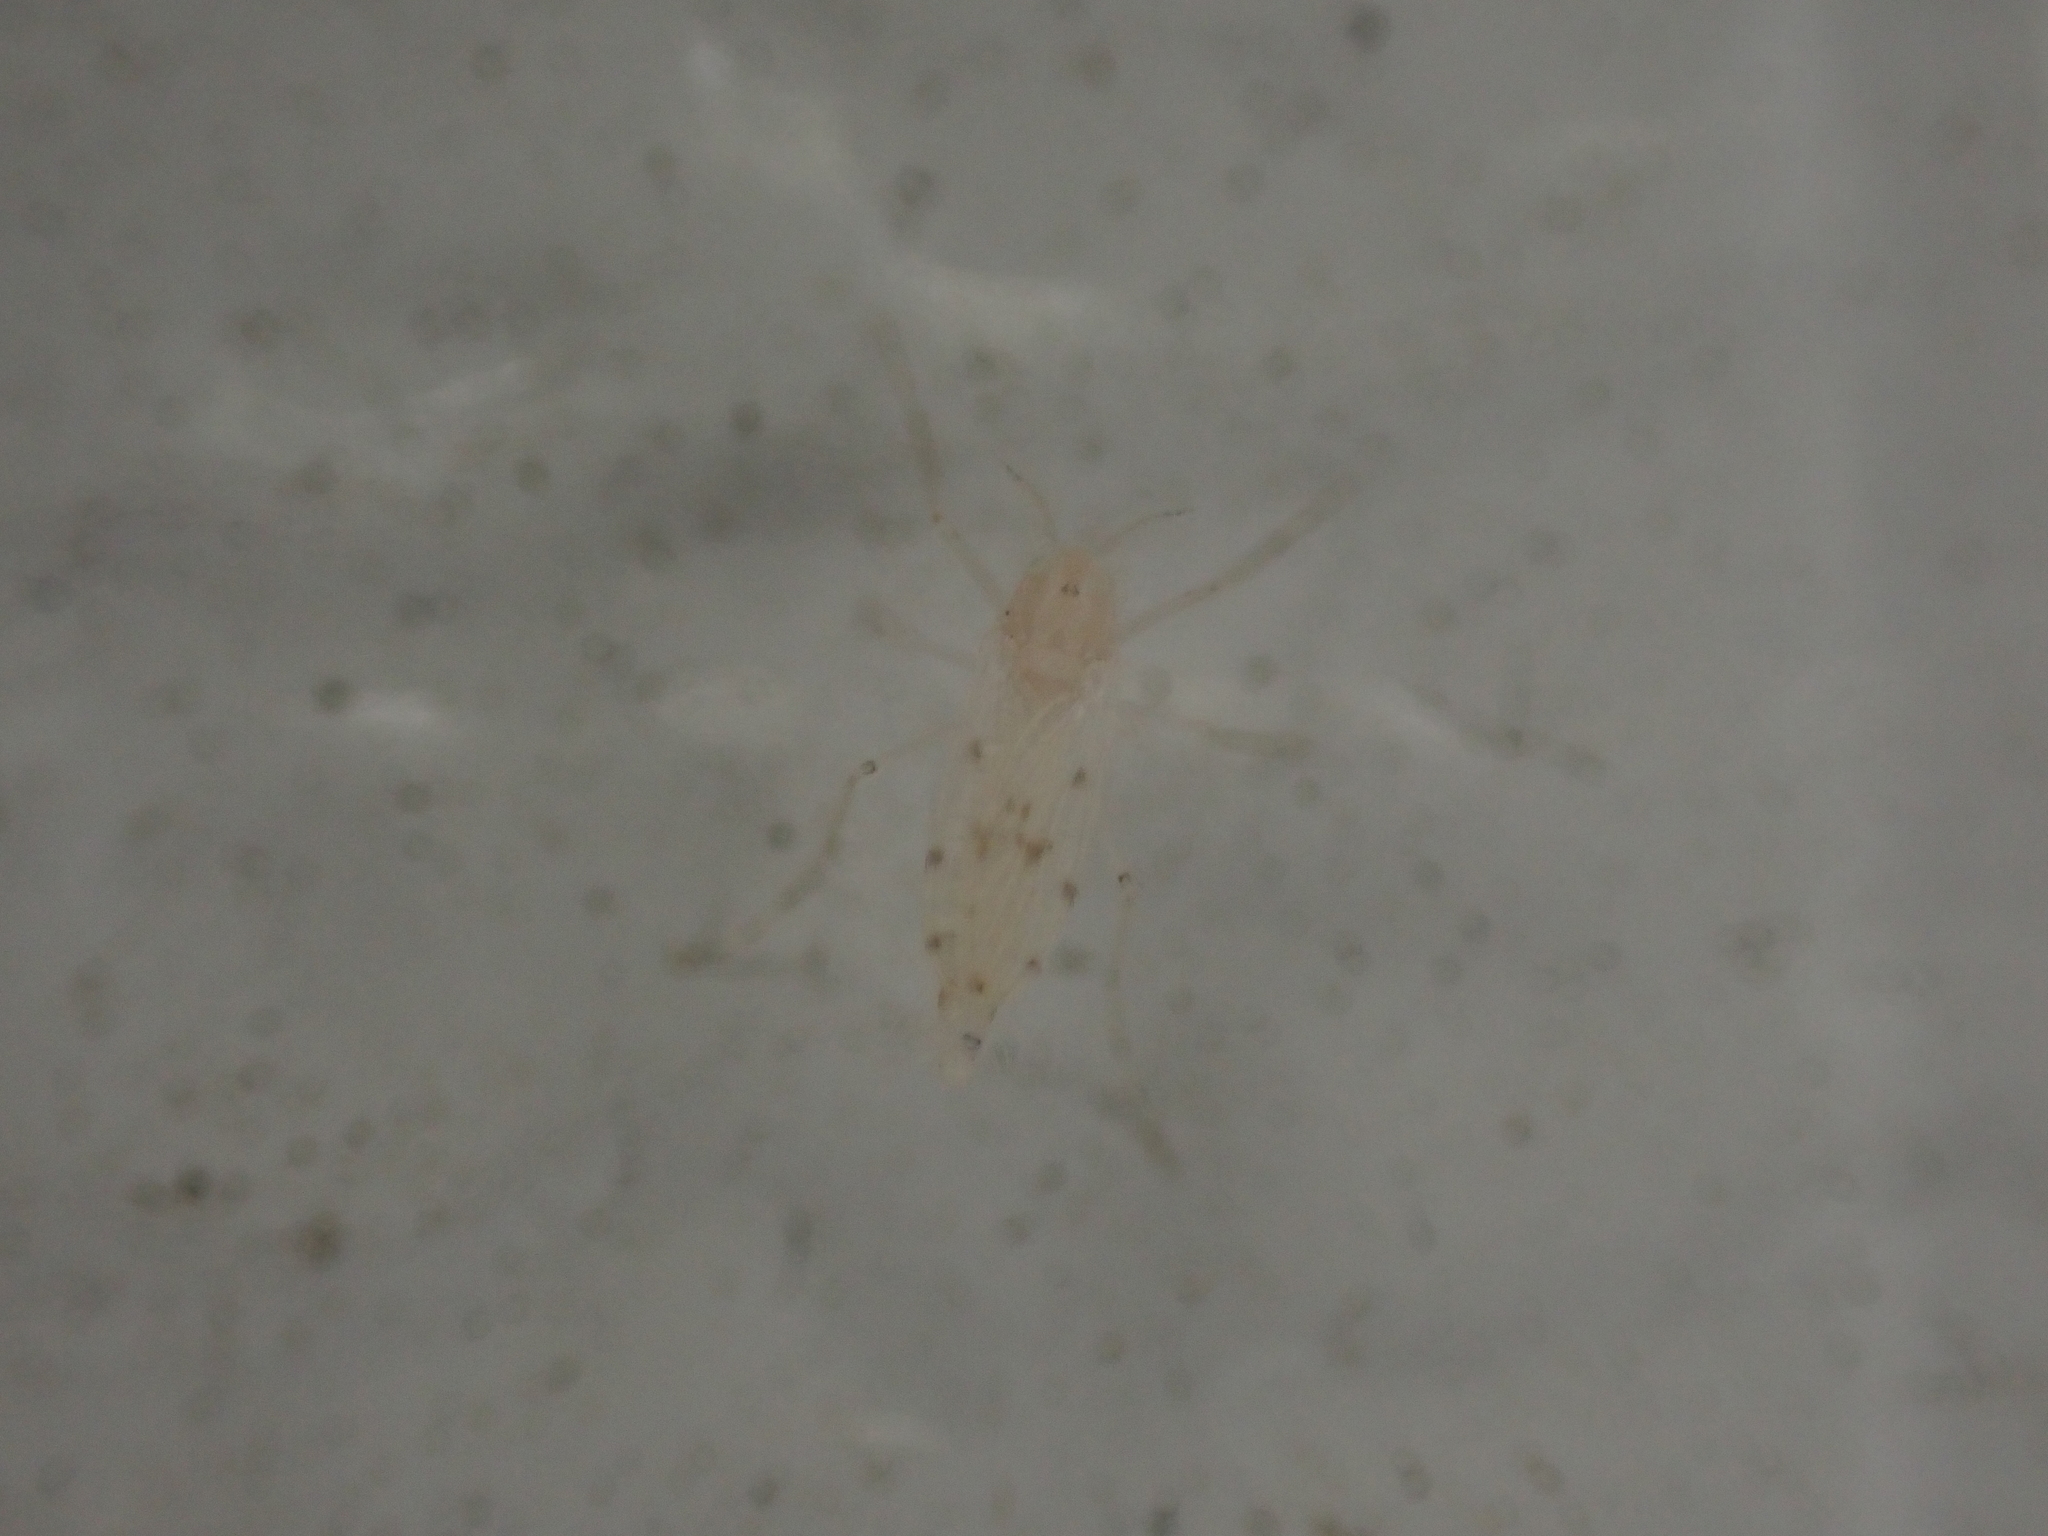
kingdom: Animalia
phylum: Arthropoda
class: Insecta
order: Diptera
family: Chaoboridae
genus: Chaoborus
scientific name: Chaoborus albatus
